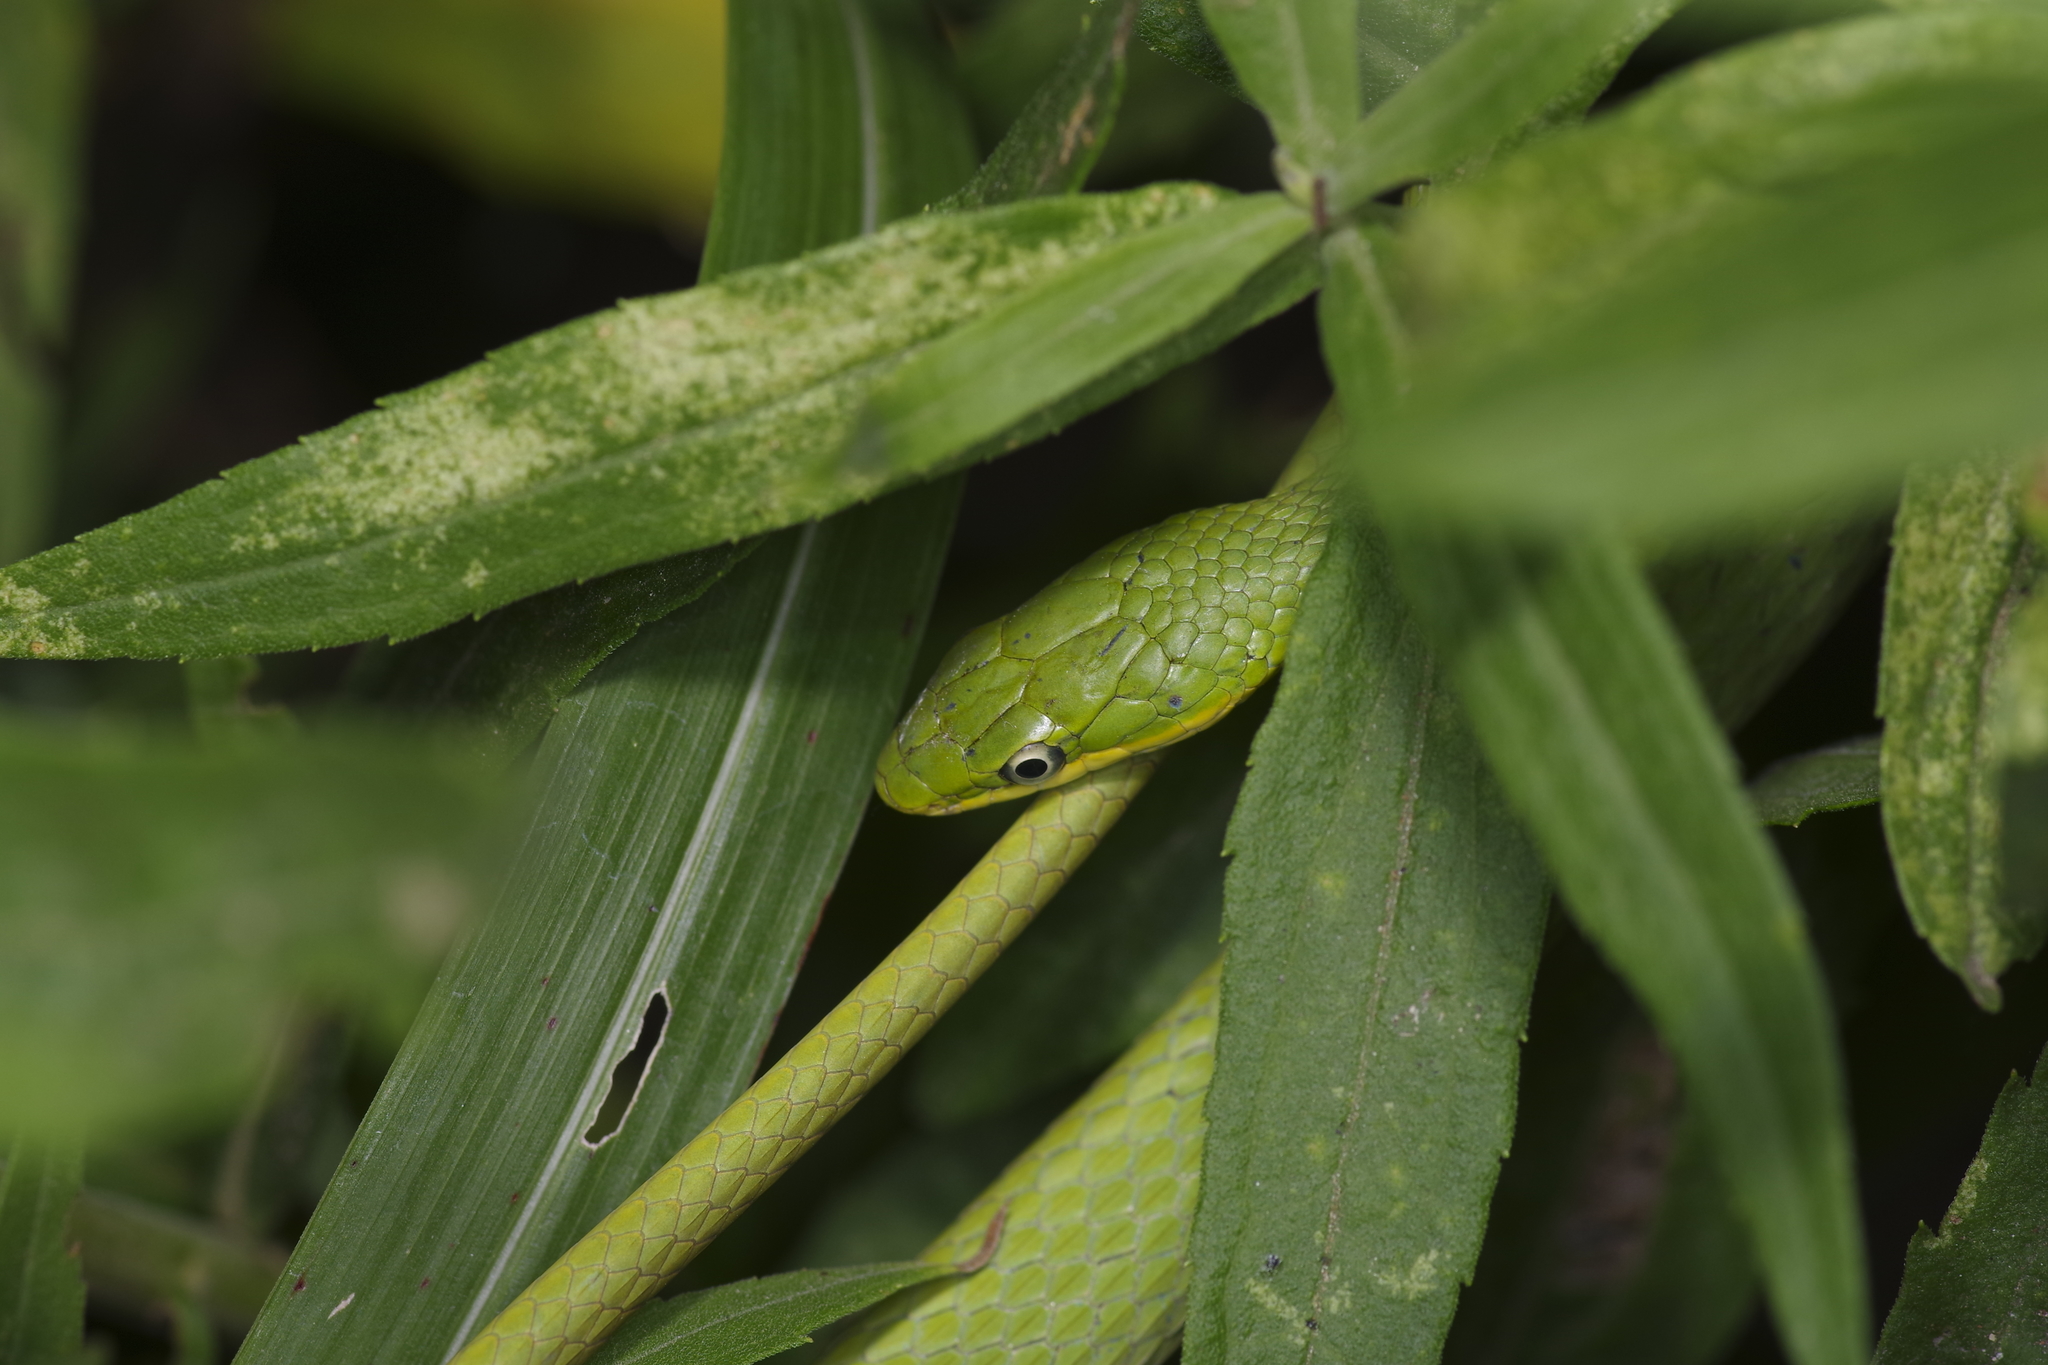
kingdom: Animalia
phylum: Chordata
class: Squamata
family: Colubridae
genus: Opheodrys
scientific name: Opheodrys aestivus
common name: Rough greensnake
